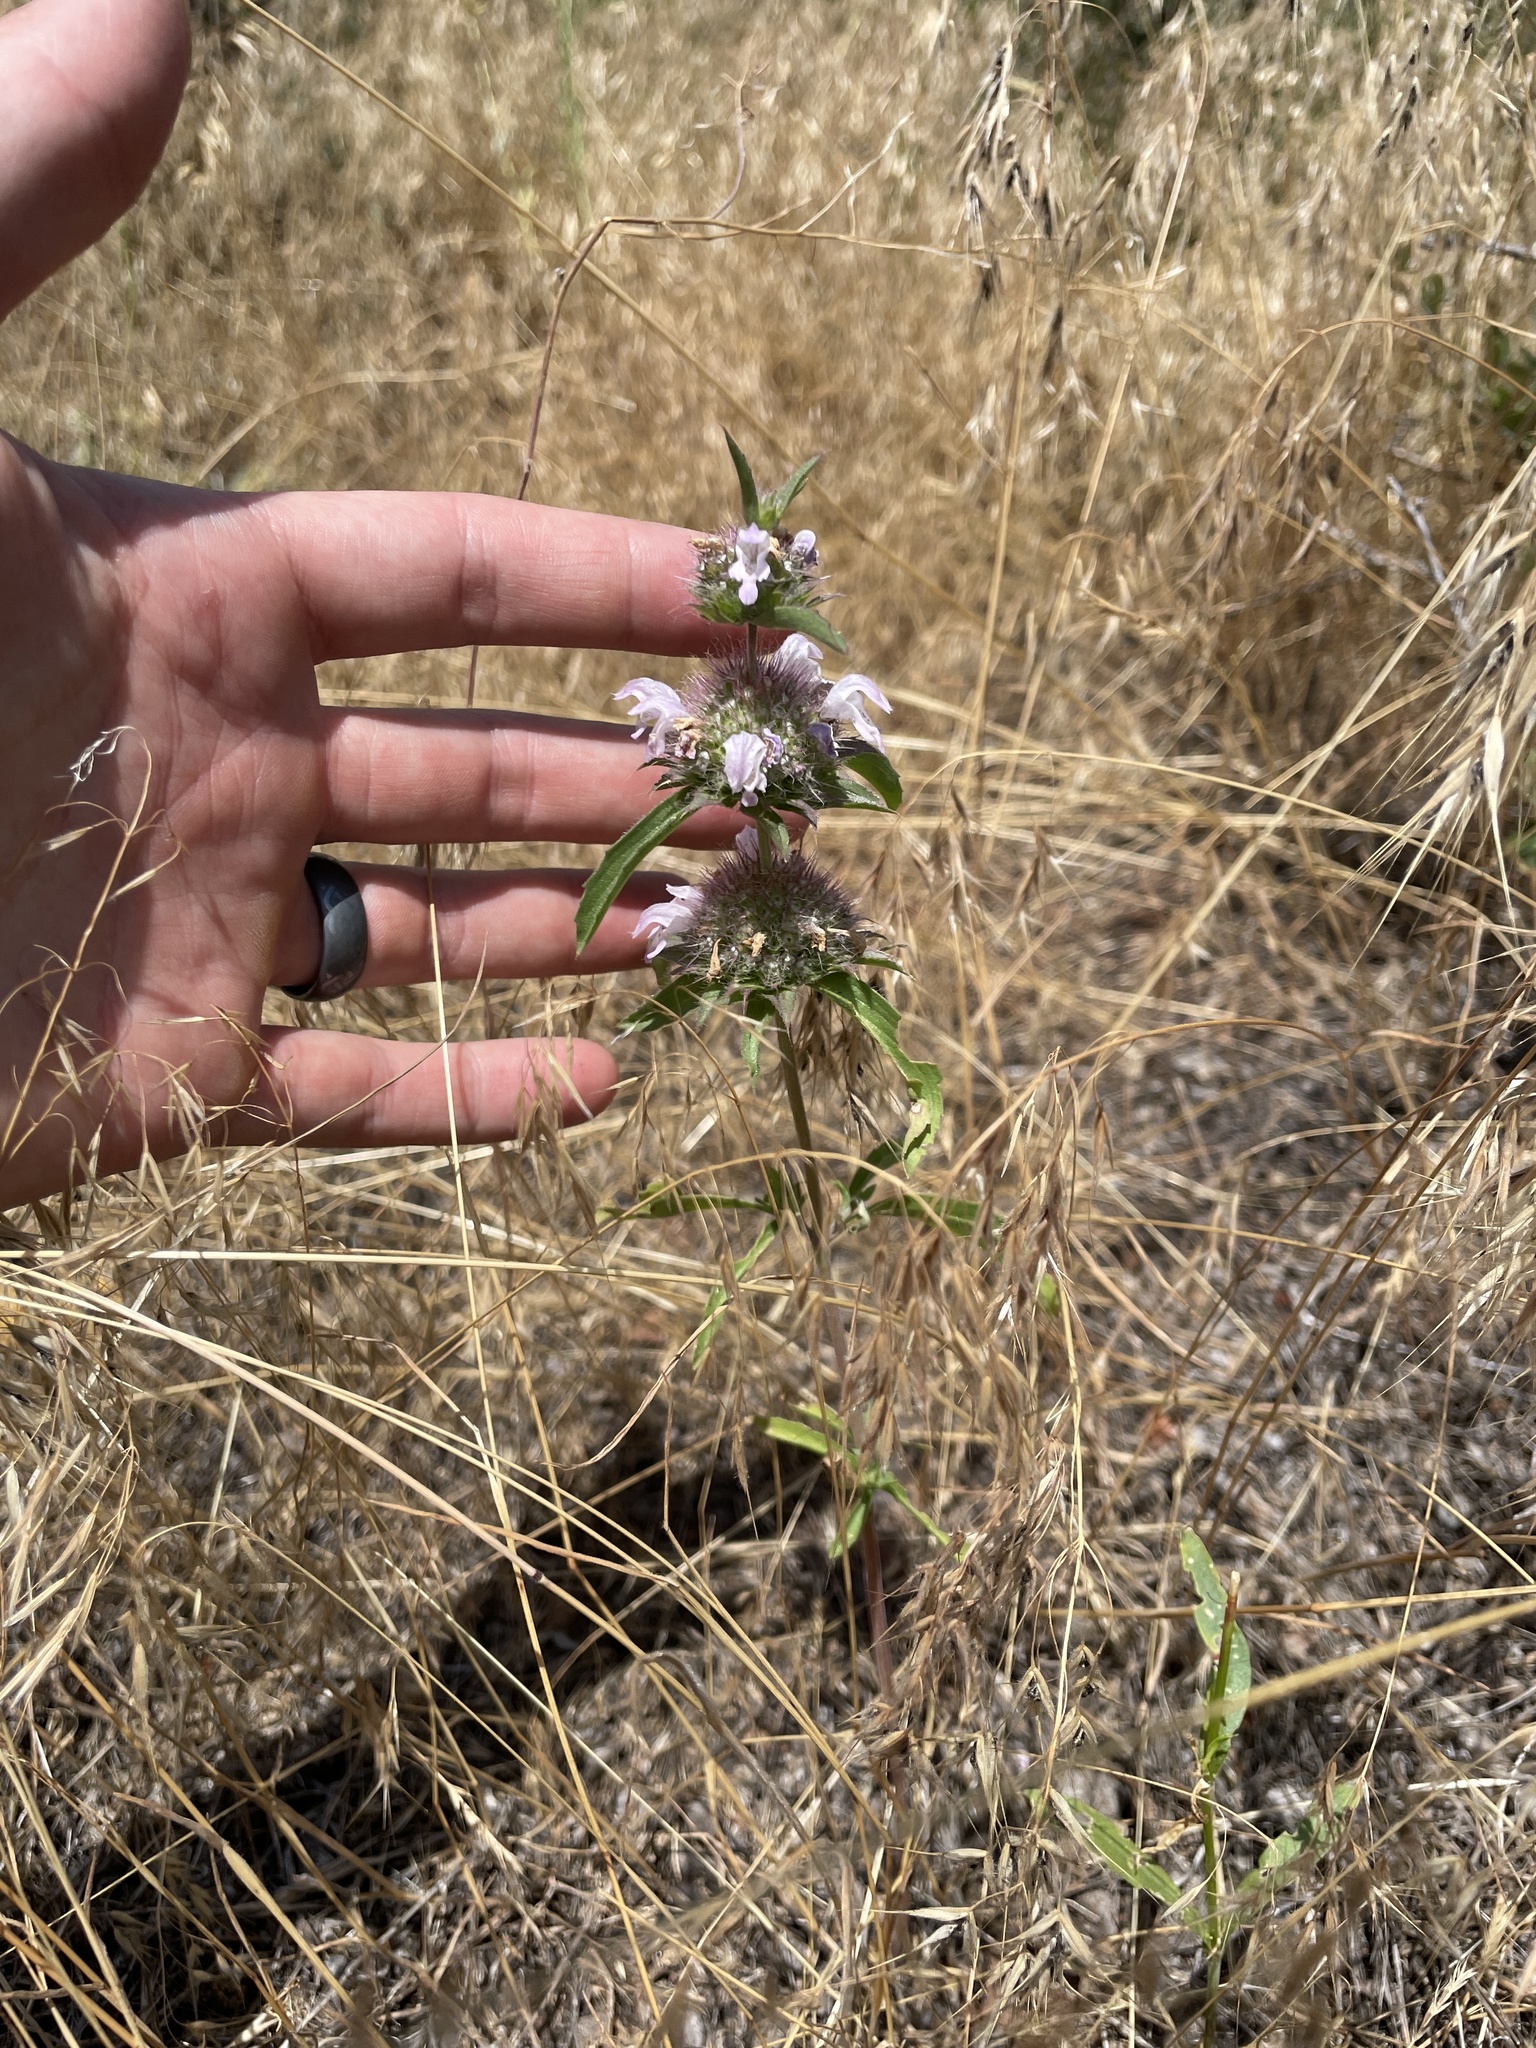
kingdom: Plantae
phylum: Tracheophyta
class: Magnoliopsida
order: Lamiales
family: Lamiaceae
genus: Monarda
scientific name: Monarda pectinata
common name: Plains beebalm
